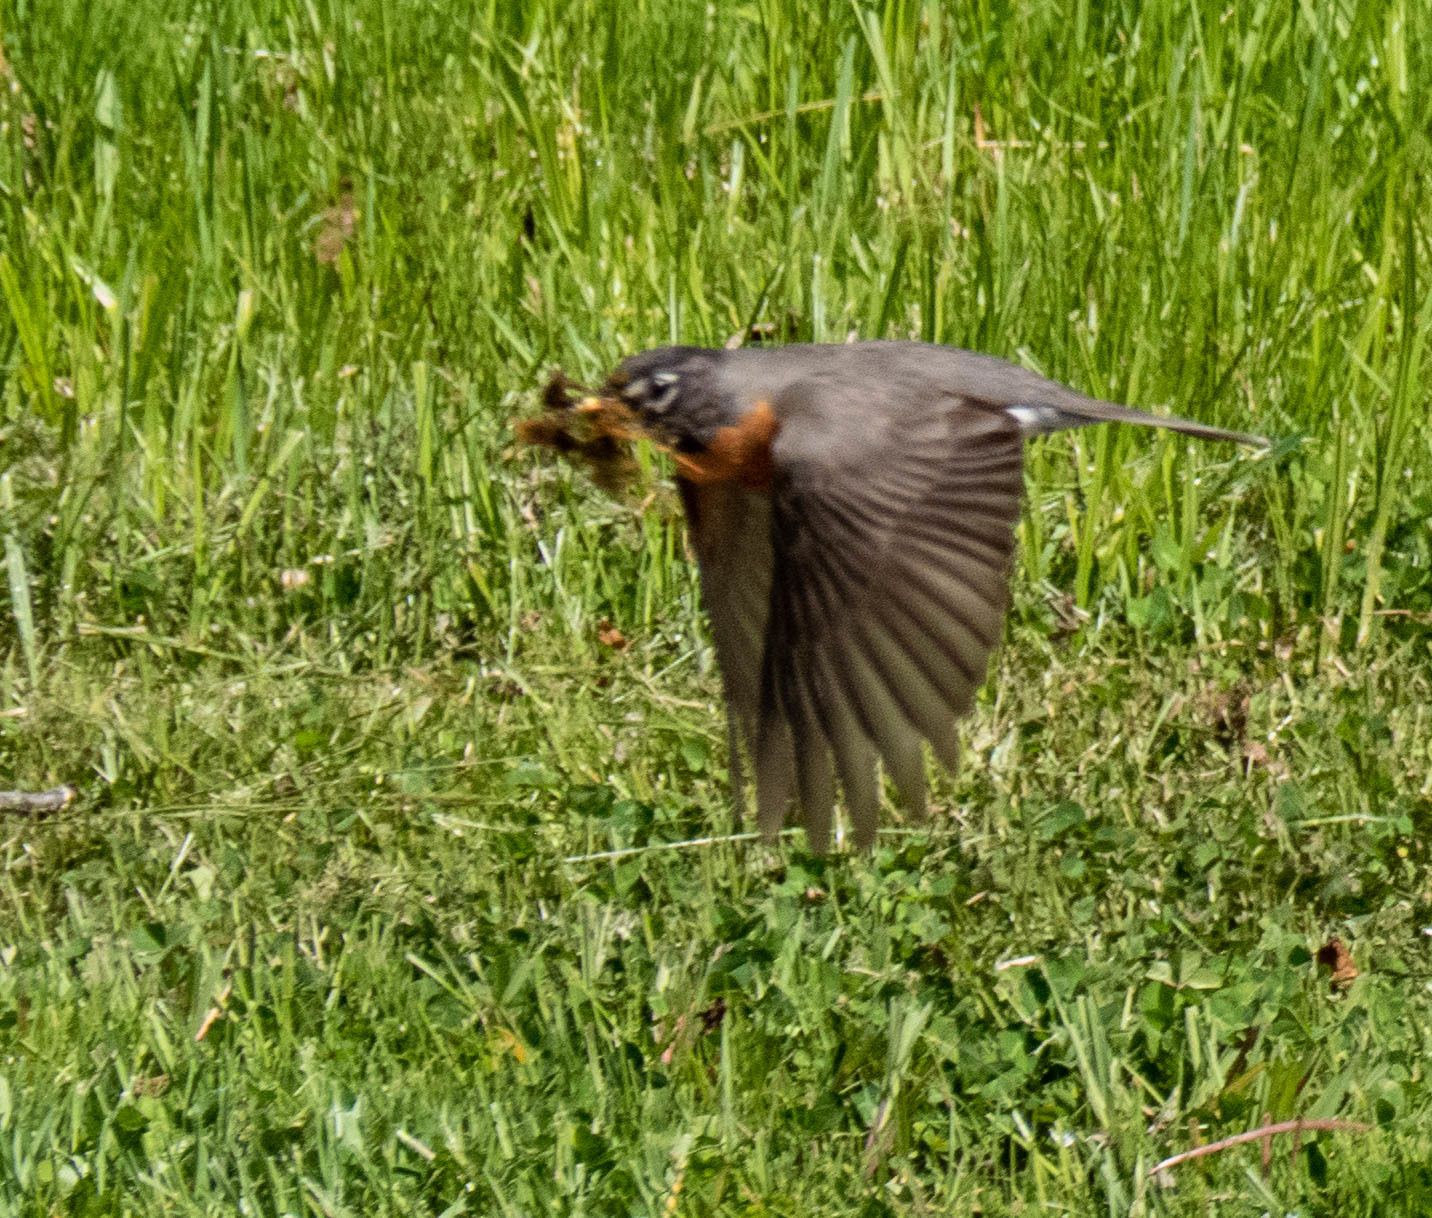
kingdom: Animalia
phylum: Chordata
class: Aves
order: Passeriformes
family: Turdidae
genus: Turdus
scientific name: Turdus migratorius
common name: American robin
